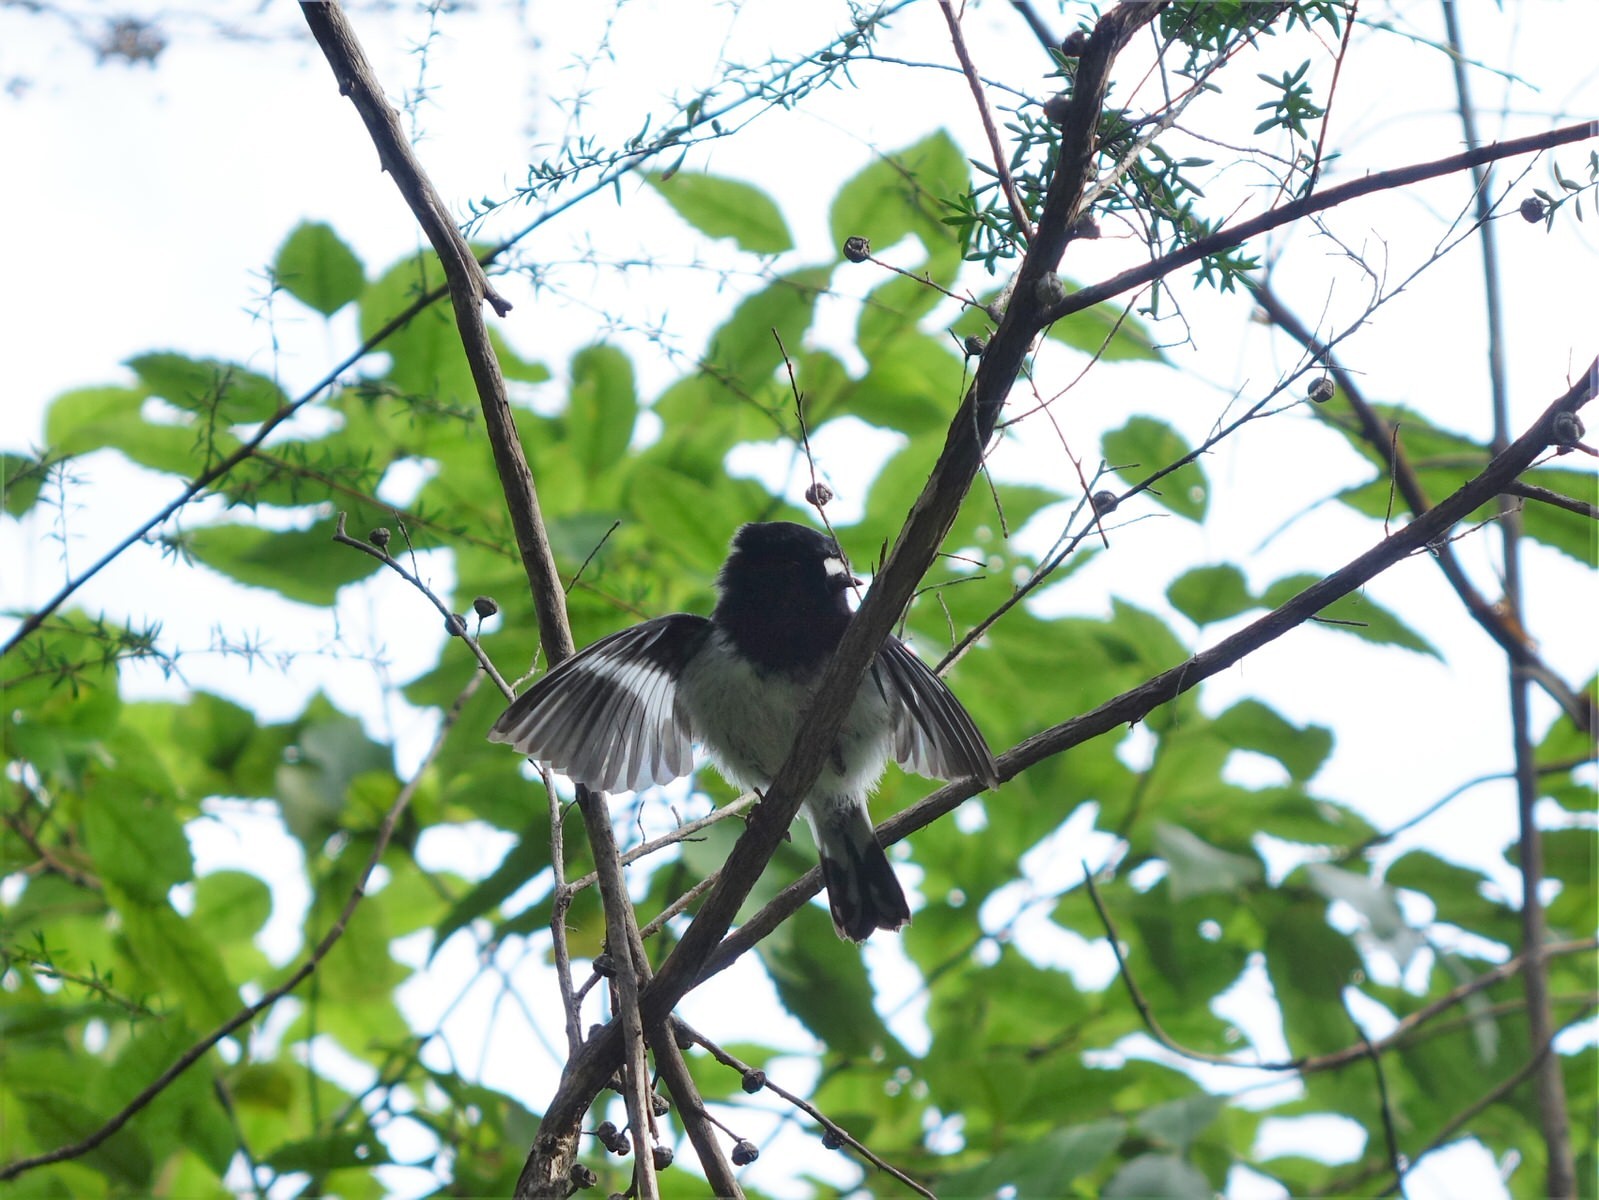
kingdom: Animalia
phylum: Chordata
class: Aves
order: Passeriformes
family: Petroicidae
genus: Petroica
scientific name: Petroica macrocephala
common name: Tomtit
